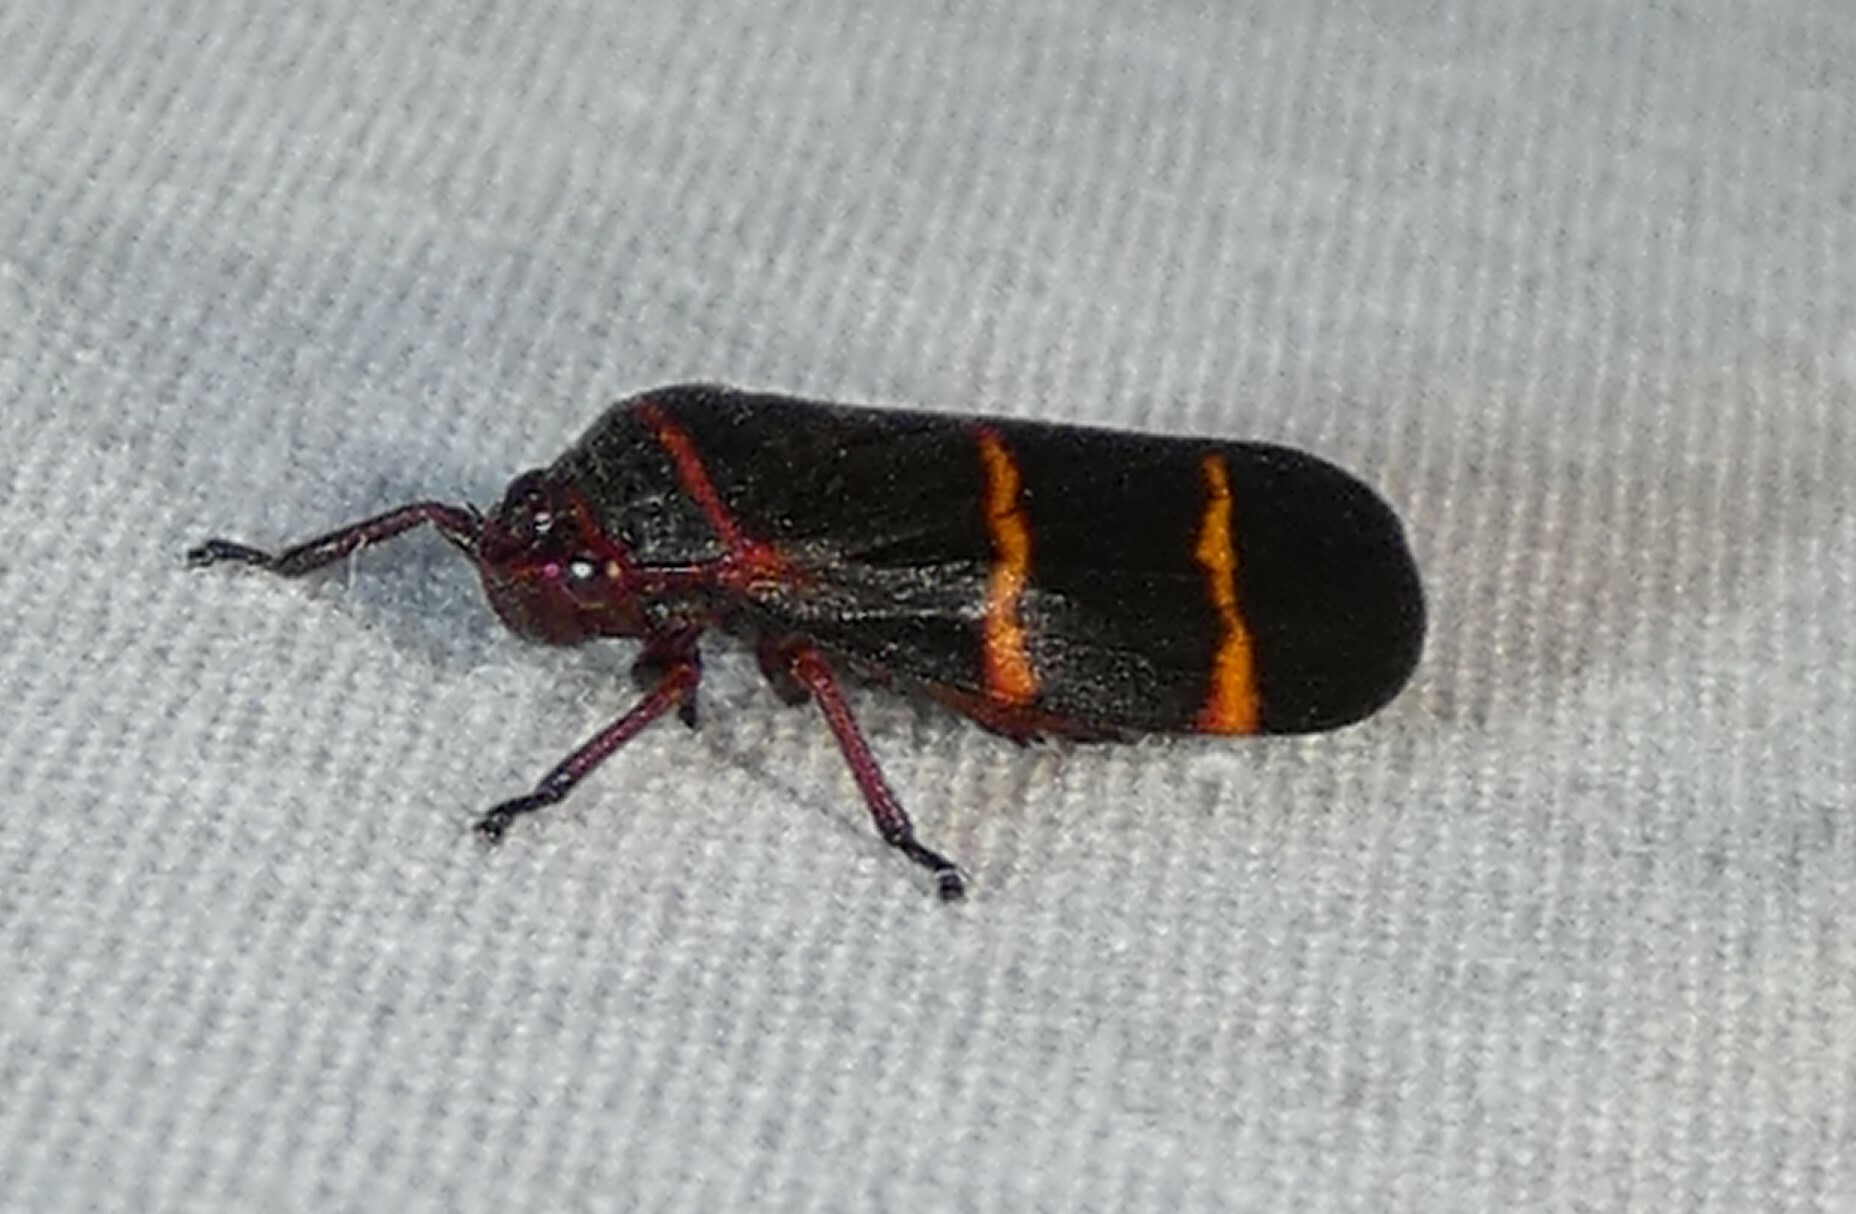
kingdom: Animalia
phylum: Arthropoda
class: Insecta
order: Hemiptera
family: Cercopidae
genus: Prosapia
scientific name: Prosapia bicincta
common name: Twolined spittlebug
